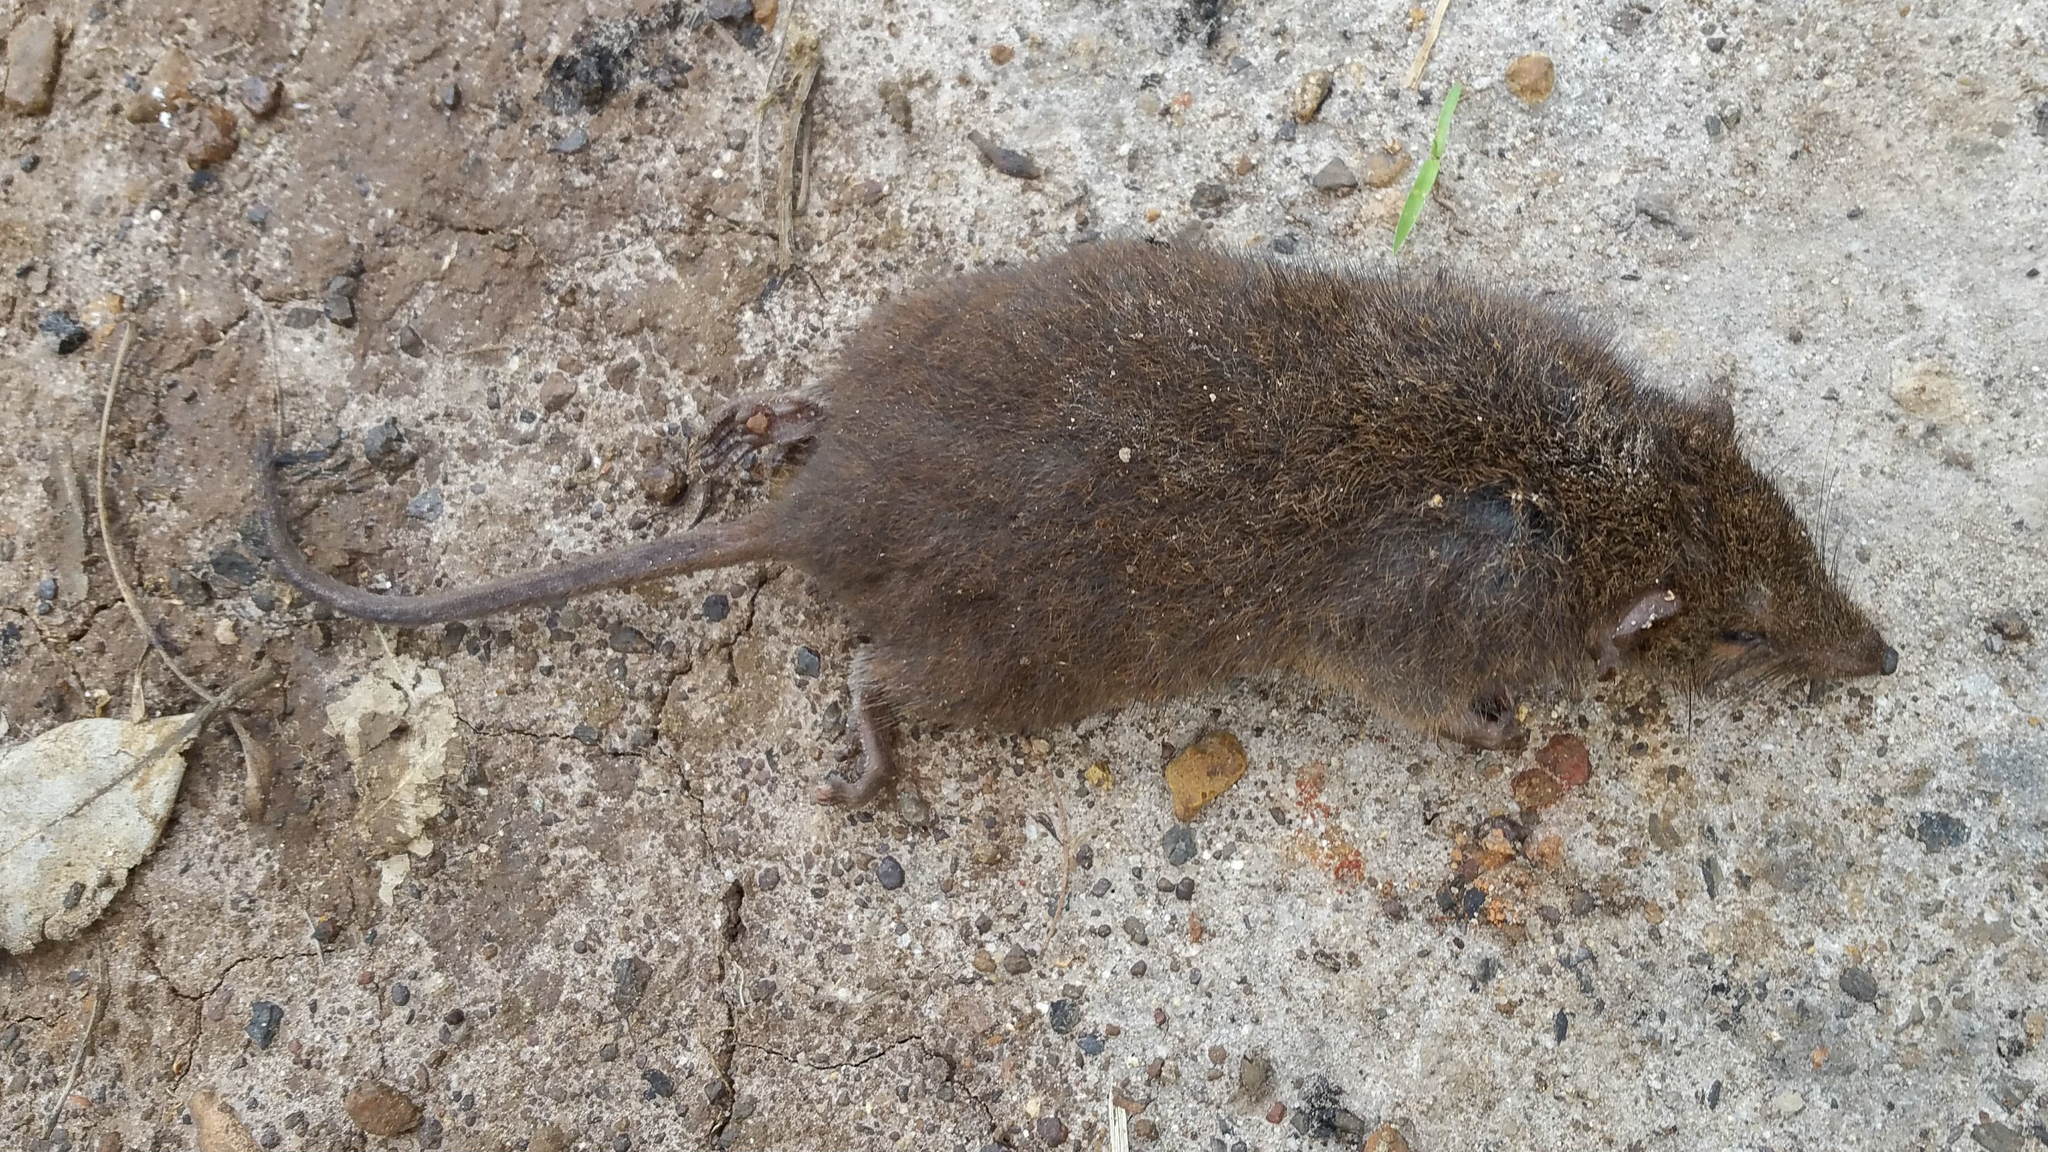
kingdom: Animalia
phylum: Chordata
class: Mammalia
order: Dasyuromorphia
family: Dasyuridae
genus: Antechinus
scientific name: Antechinus
